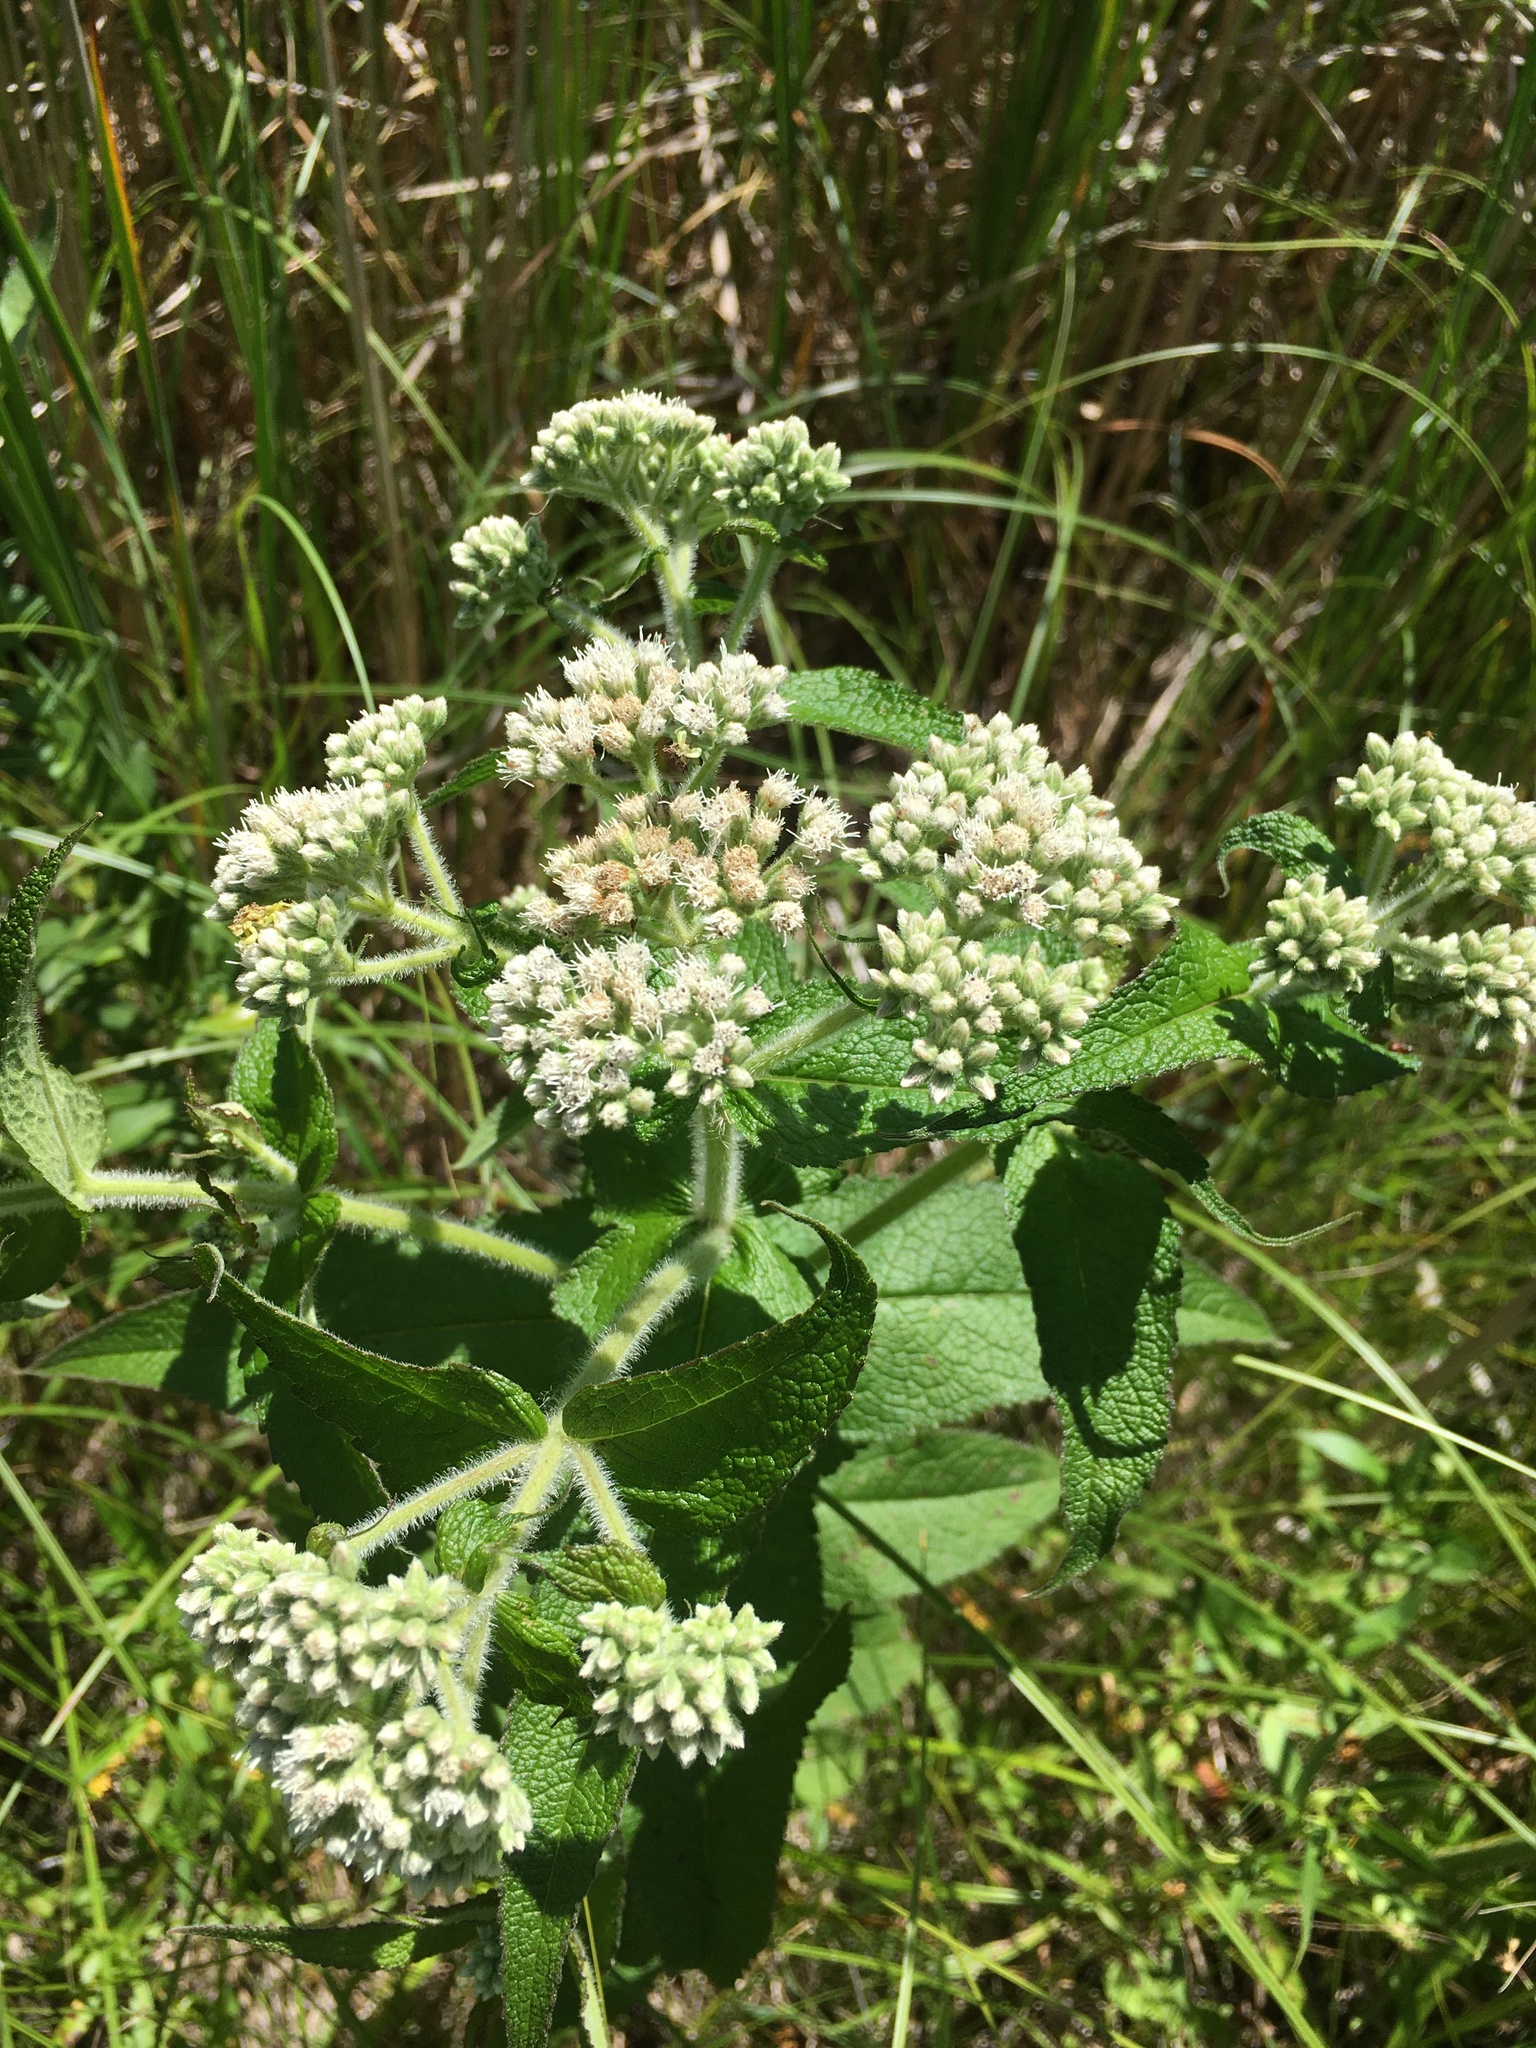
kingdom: Plantae
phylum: Tracheophyta
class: Magnoliopsida
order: Asterales
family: Asteraceae
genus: Eupatorium
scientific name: Eupatorium perfoliatum
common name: Boneset
